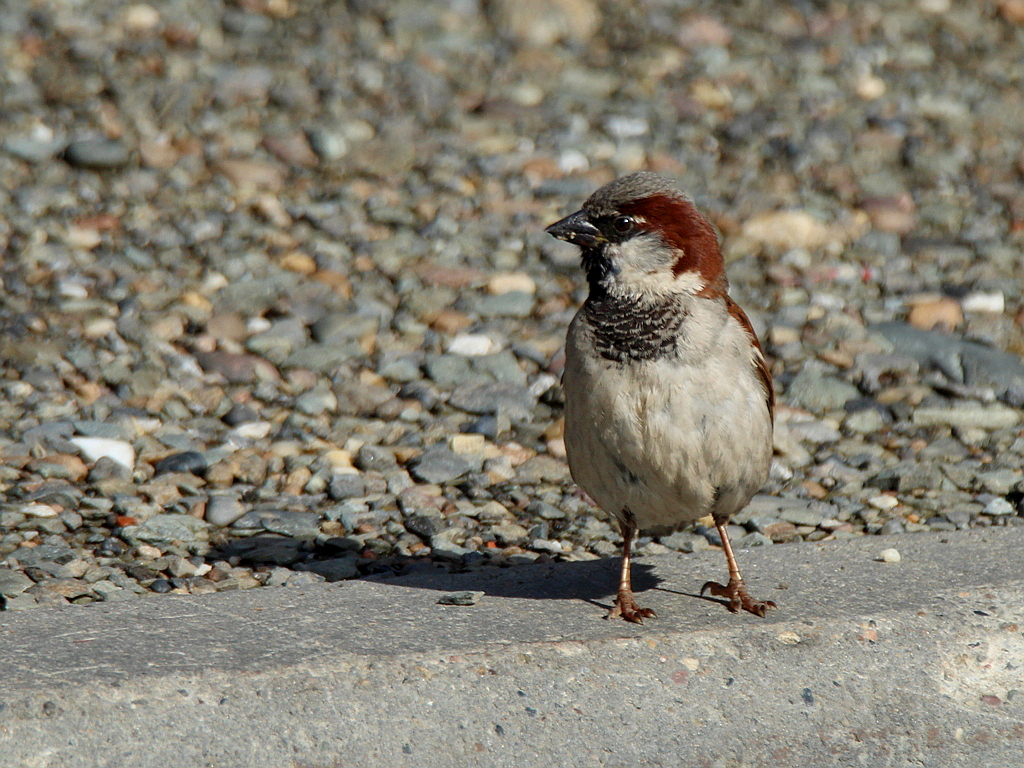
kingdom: Animalia
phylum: Chordata
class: Aves
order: Passeriformes
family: Passeridae
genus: Passer
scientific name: Passer domesticus
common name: House sparrow
